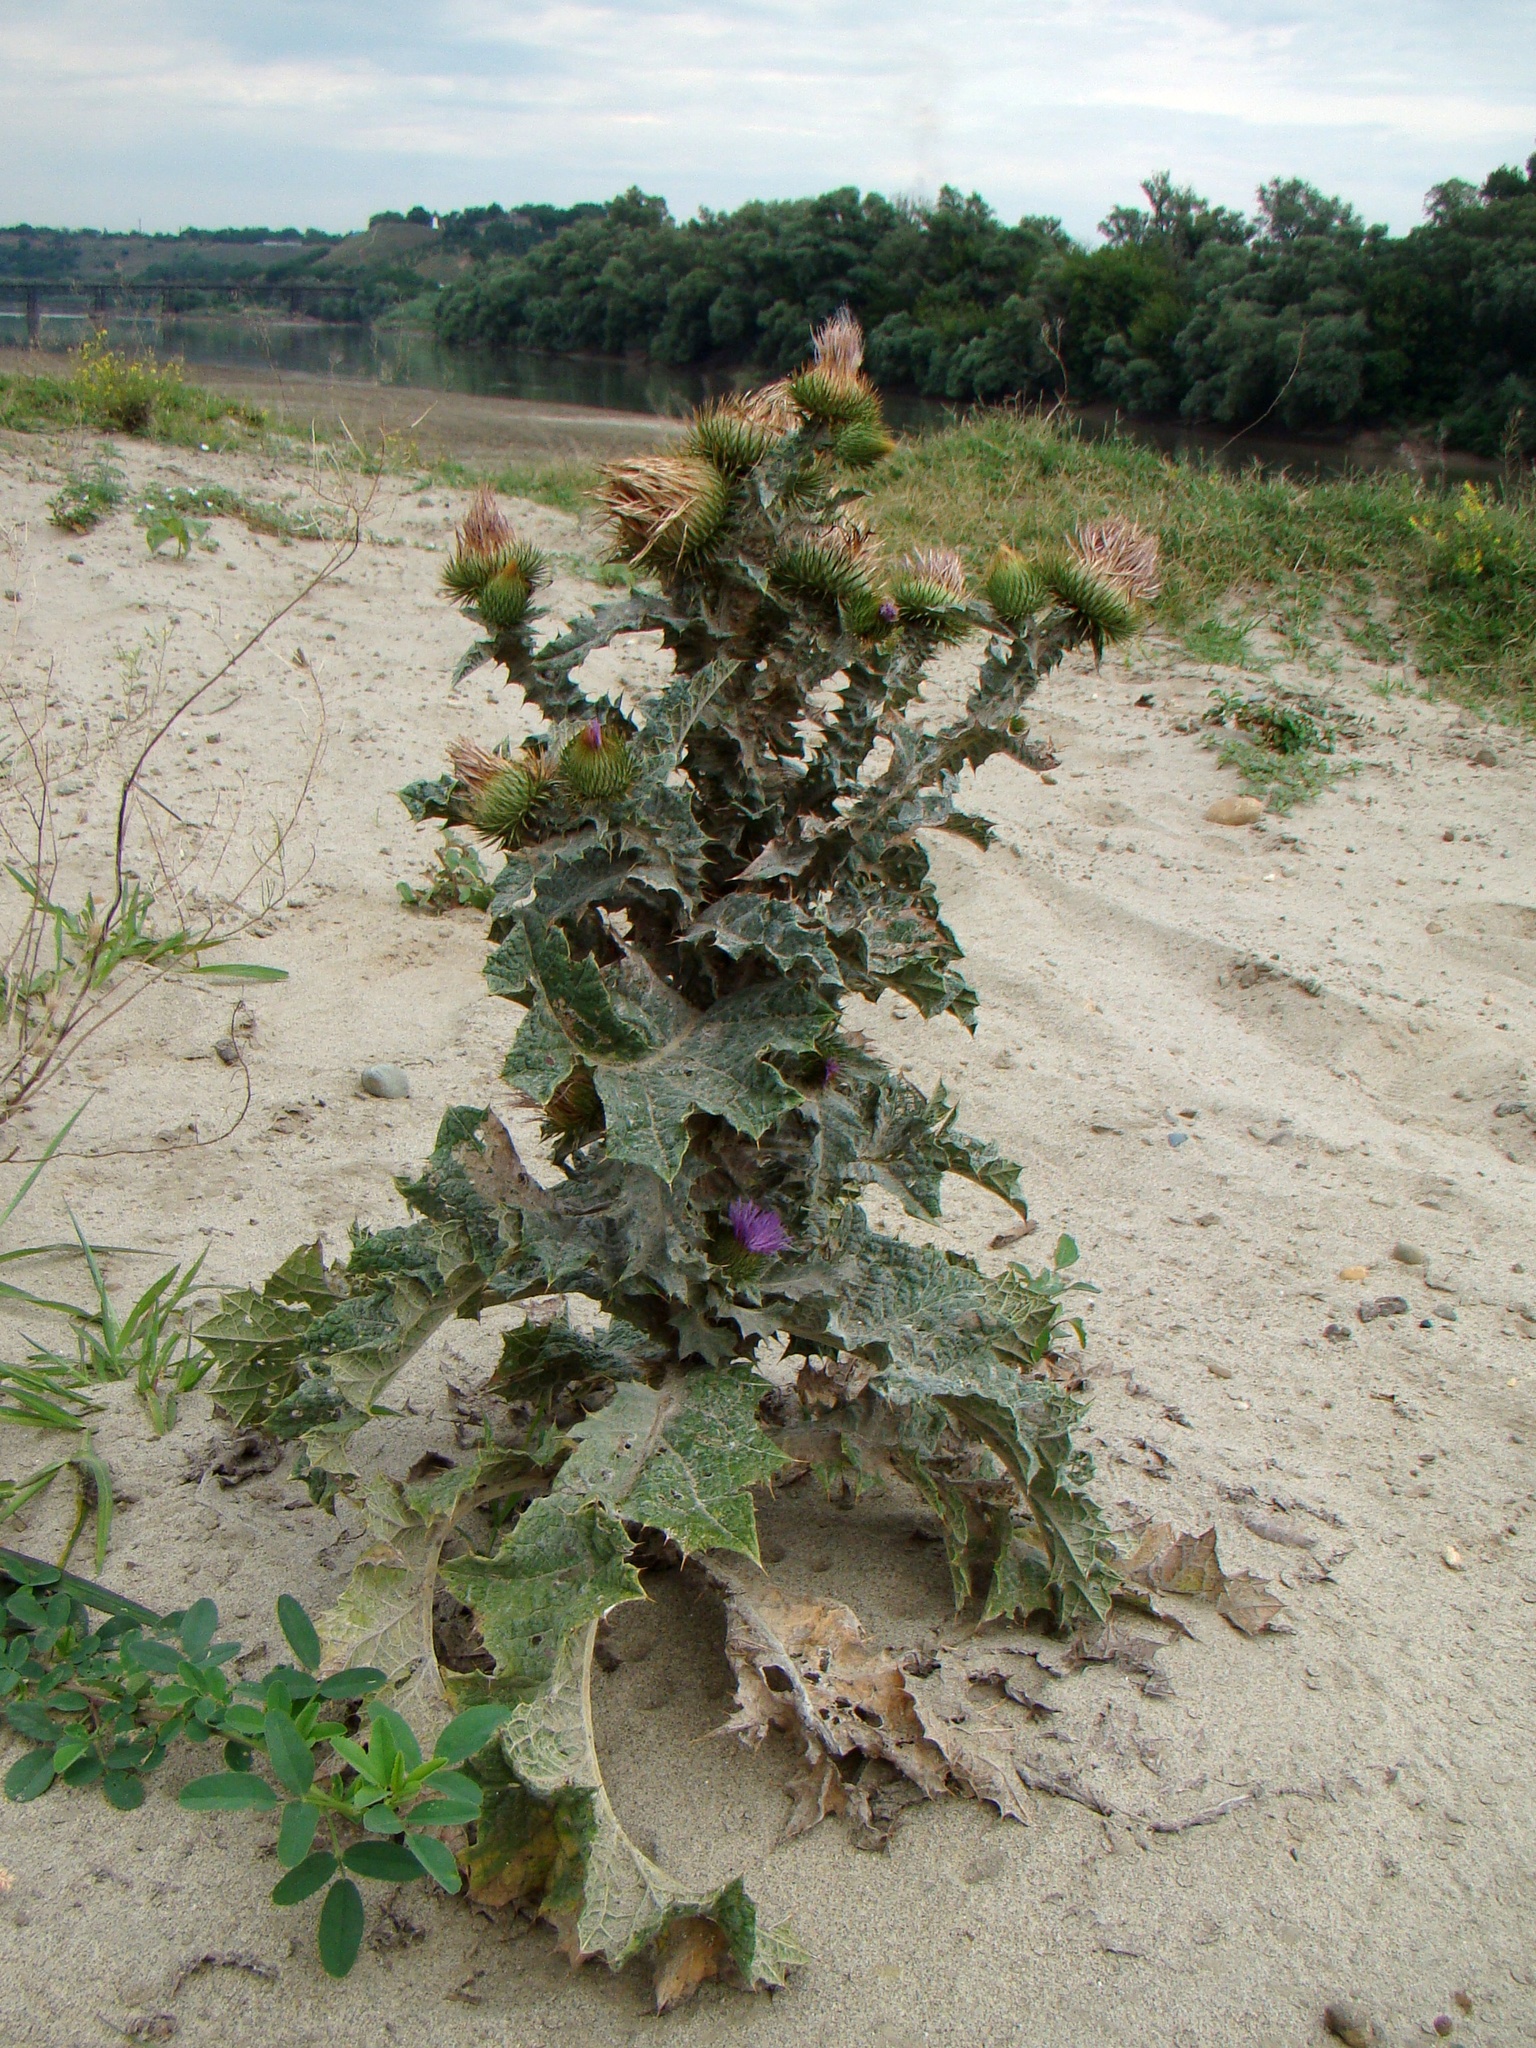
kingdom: Plantae
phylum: Tracheophyta
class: Magnoliopsida
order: Asterales
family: Asteraceae
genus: Onopordum
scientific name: Onopordum acanthium
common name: Scotch thistle
